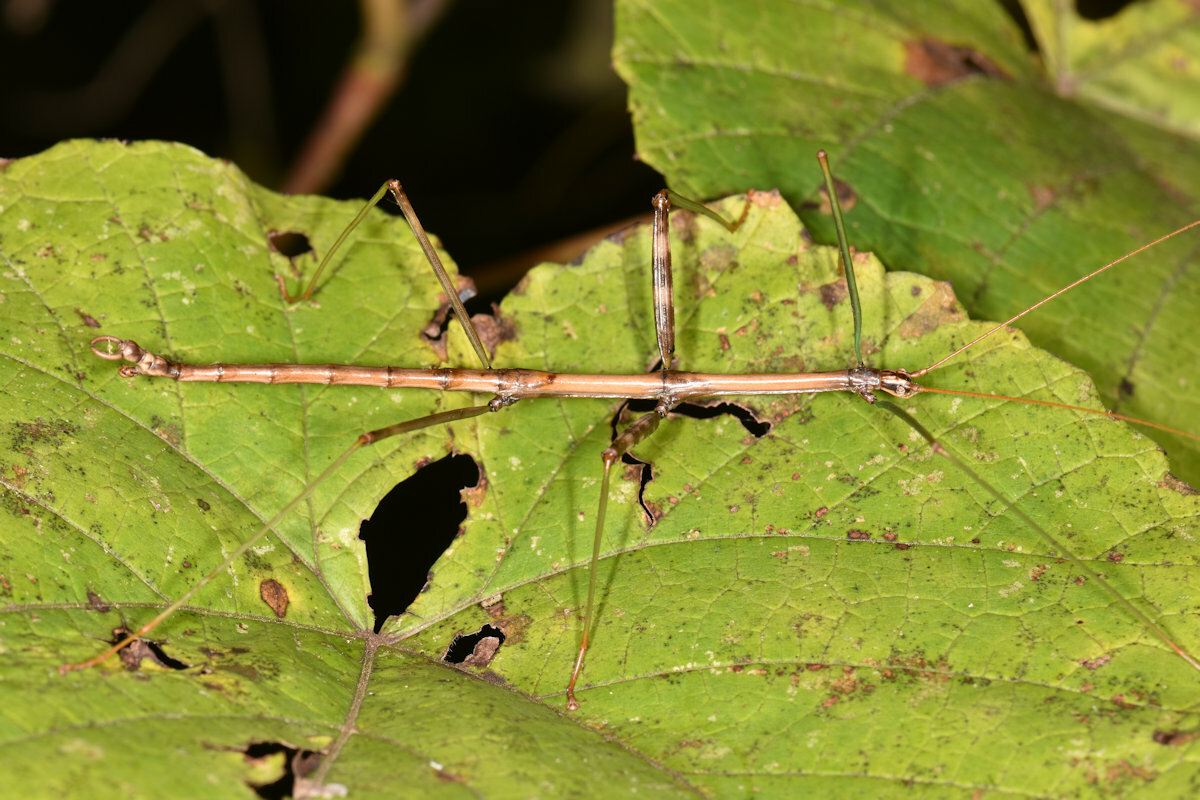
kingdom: Animalia
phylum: Arthropoda
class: Insecta
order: Phasmida
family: Diapheromeridae
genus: Diapheromera
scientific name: Diapheromera femorata
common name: Common american walkingstick
